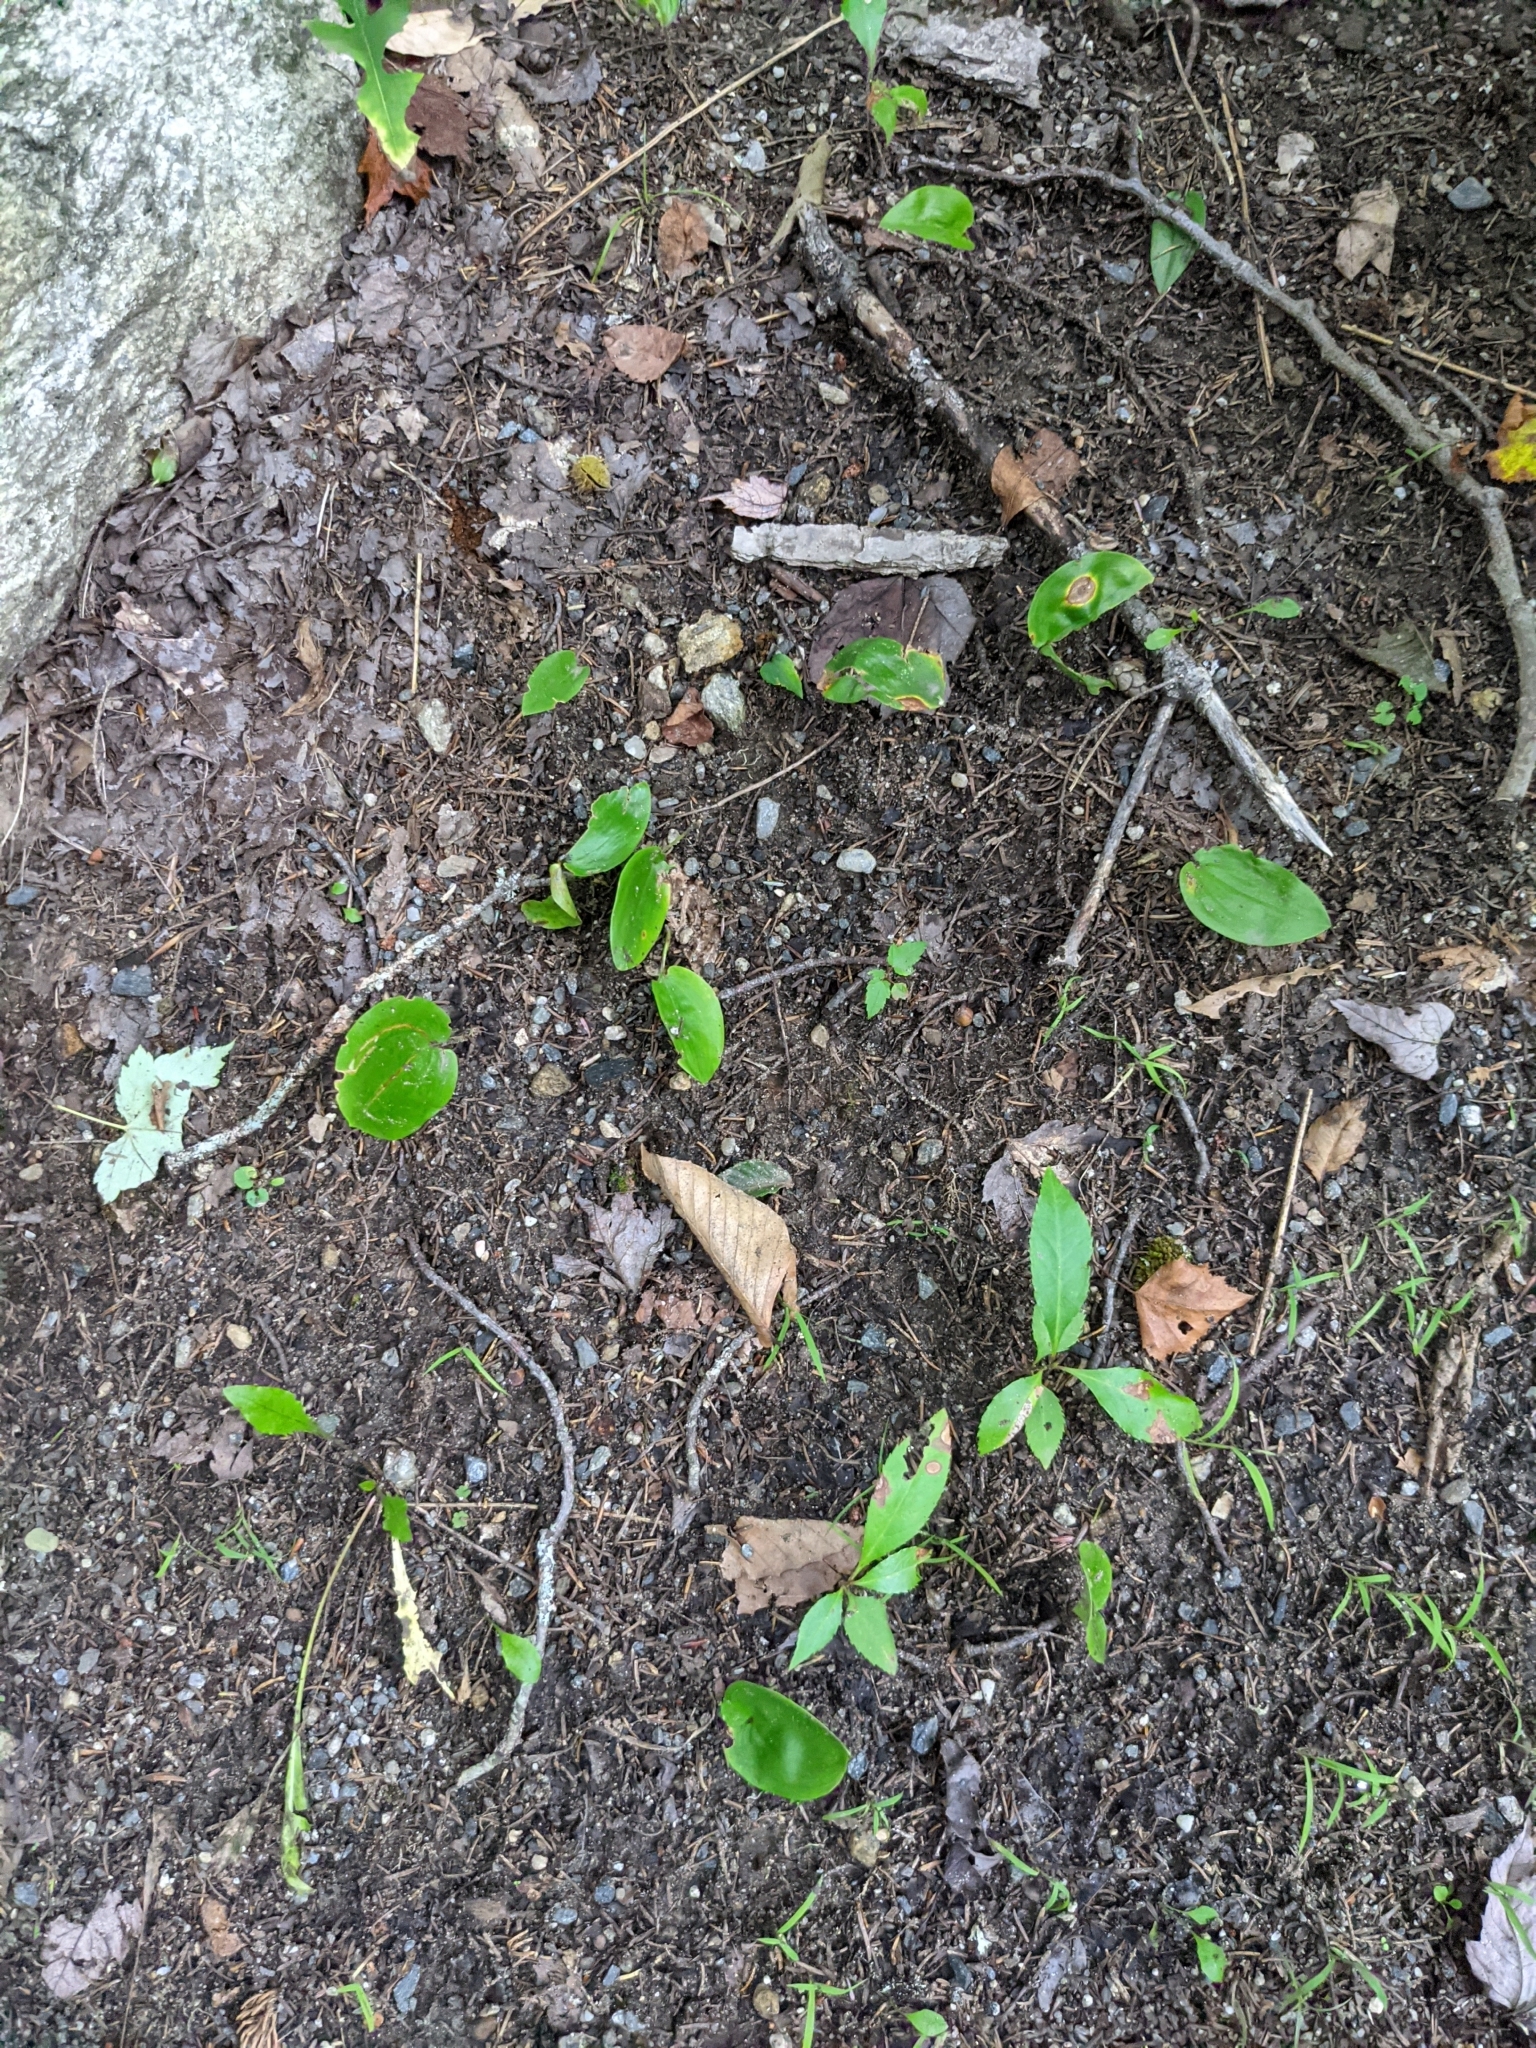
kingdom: Plantae
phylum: Tracheophyta
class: Liliopsida
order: Asparagales
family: Asparagaceae
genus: Maianthemum
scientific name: Maianthemum canadense
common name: False lily-of-the-valley
